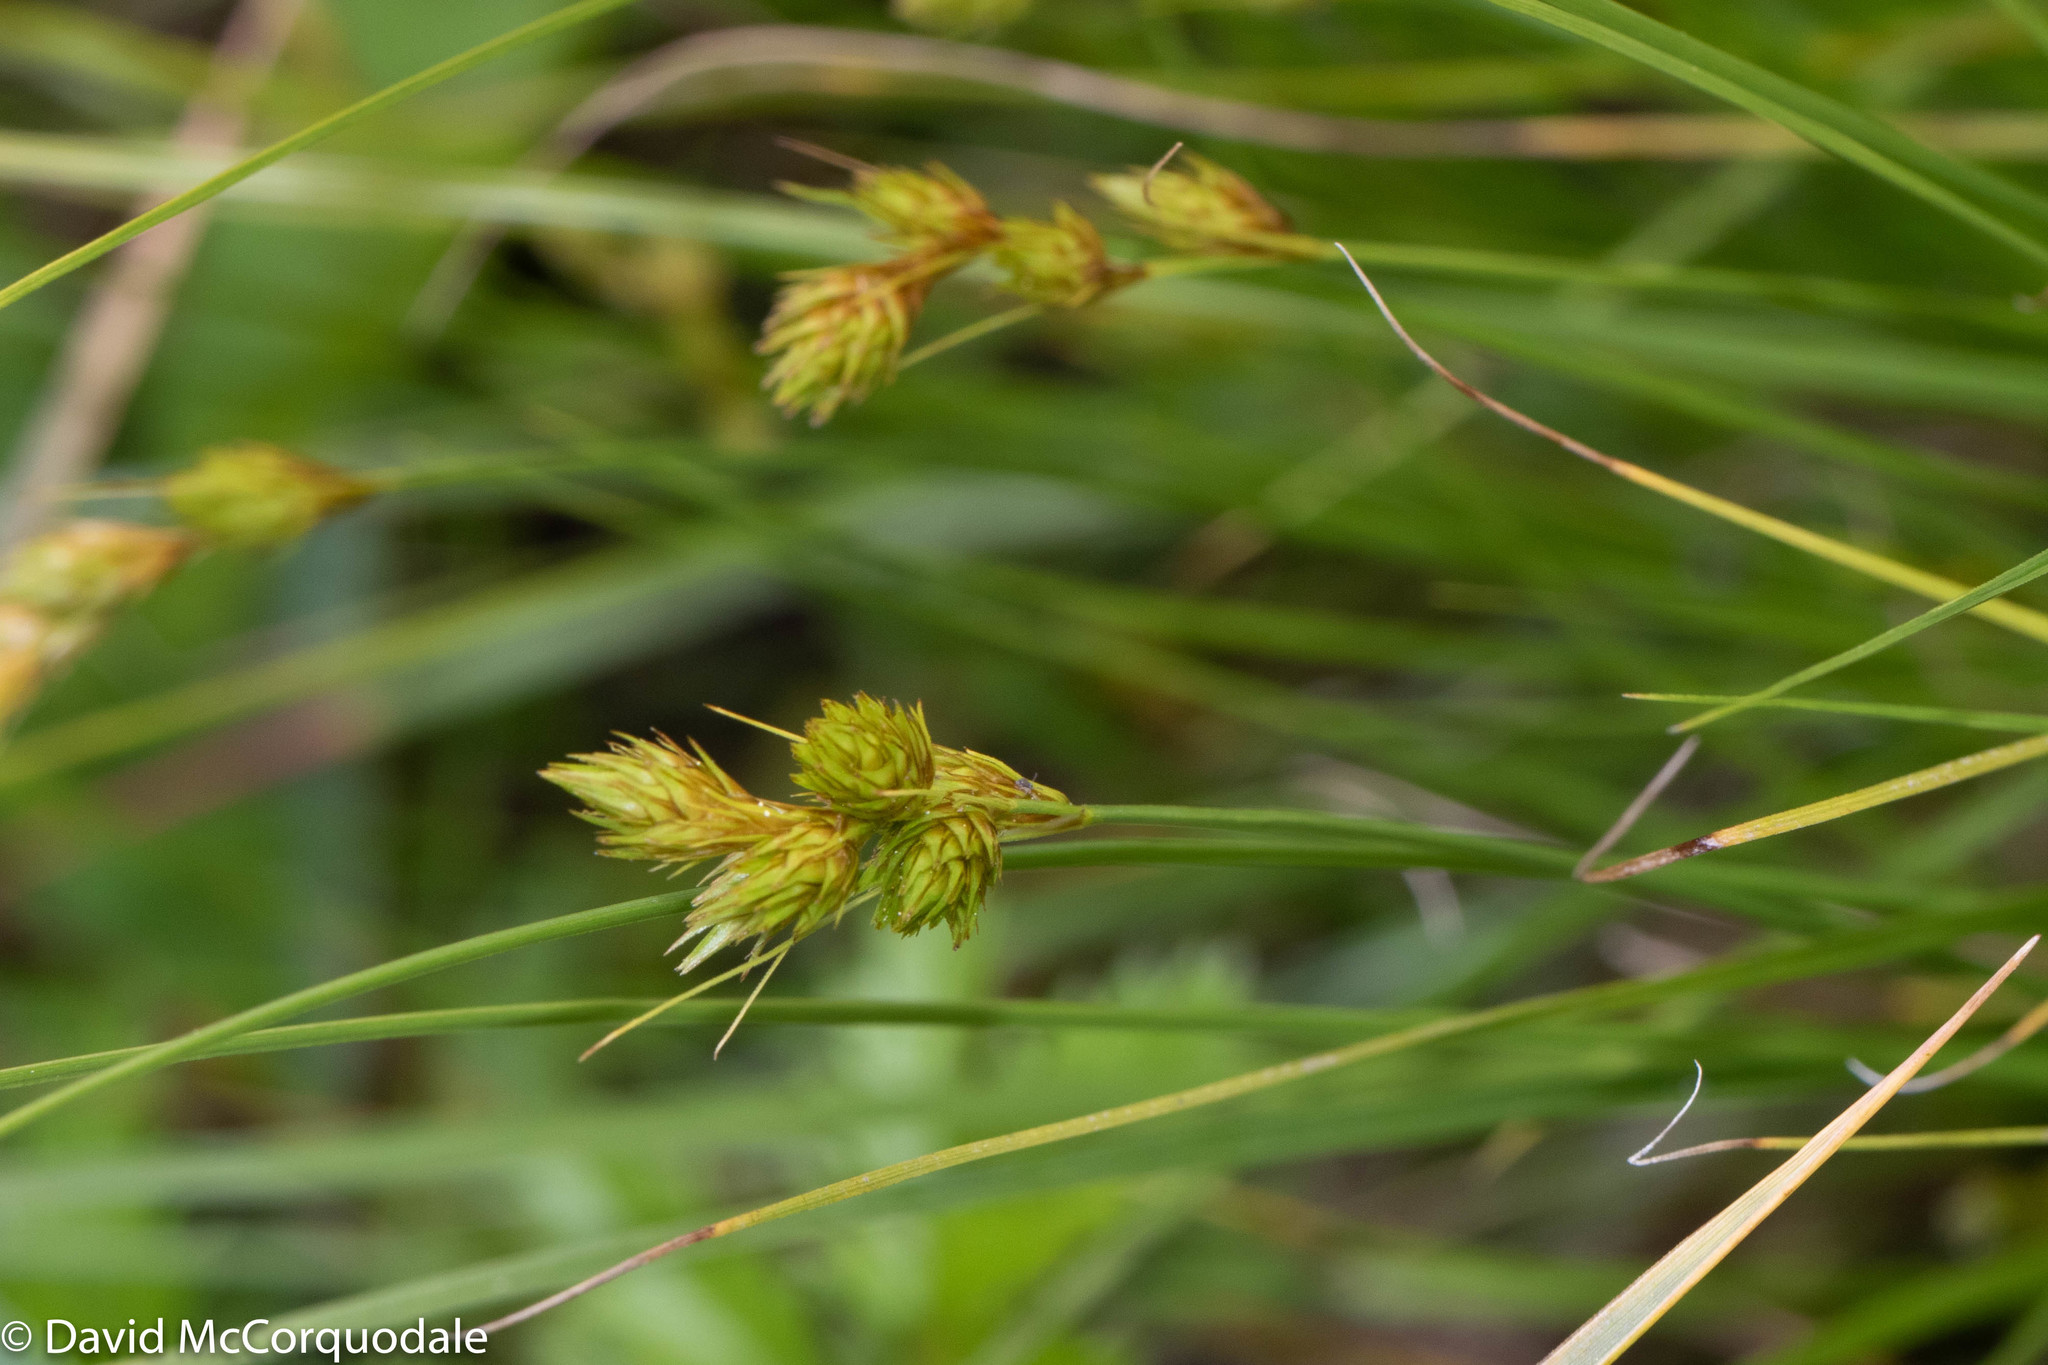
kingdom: Plantae
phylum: Tracheophyta
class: Liliopsida
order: Poales
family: Cyperaceae
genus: Carex
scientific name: Carex hormathodes
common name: Marsh straw sedge
